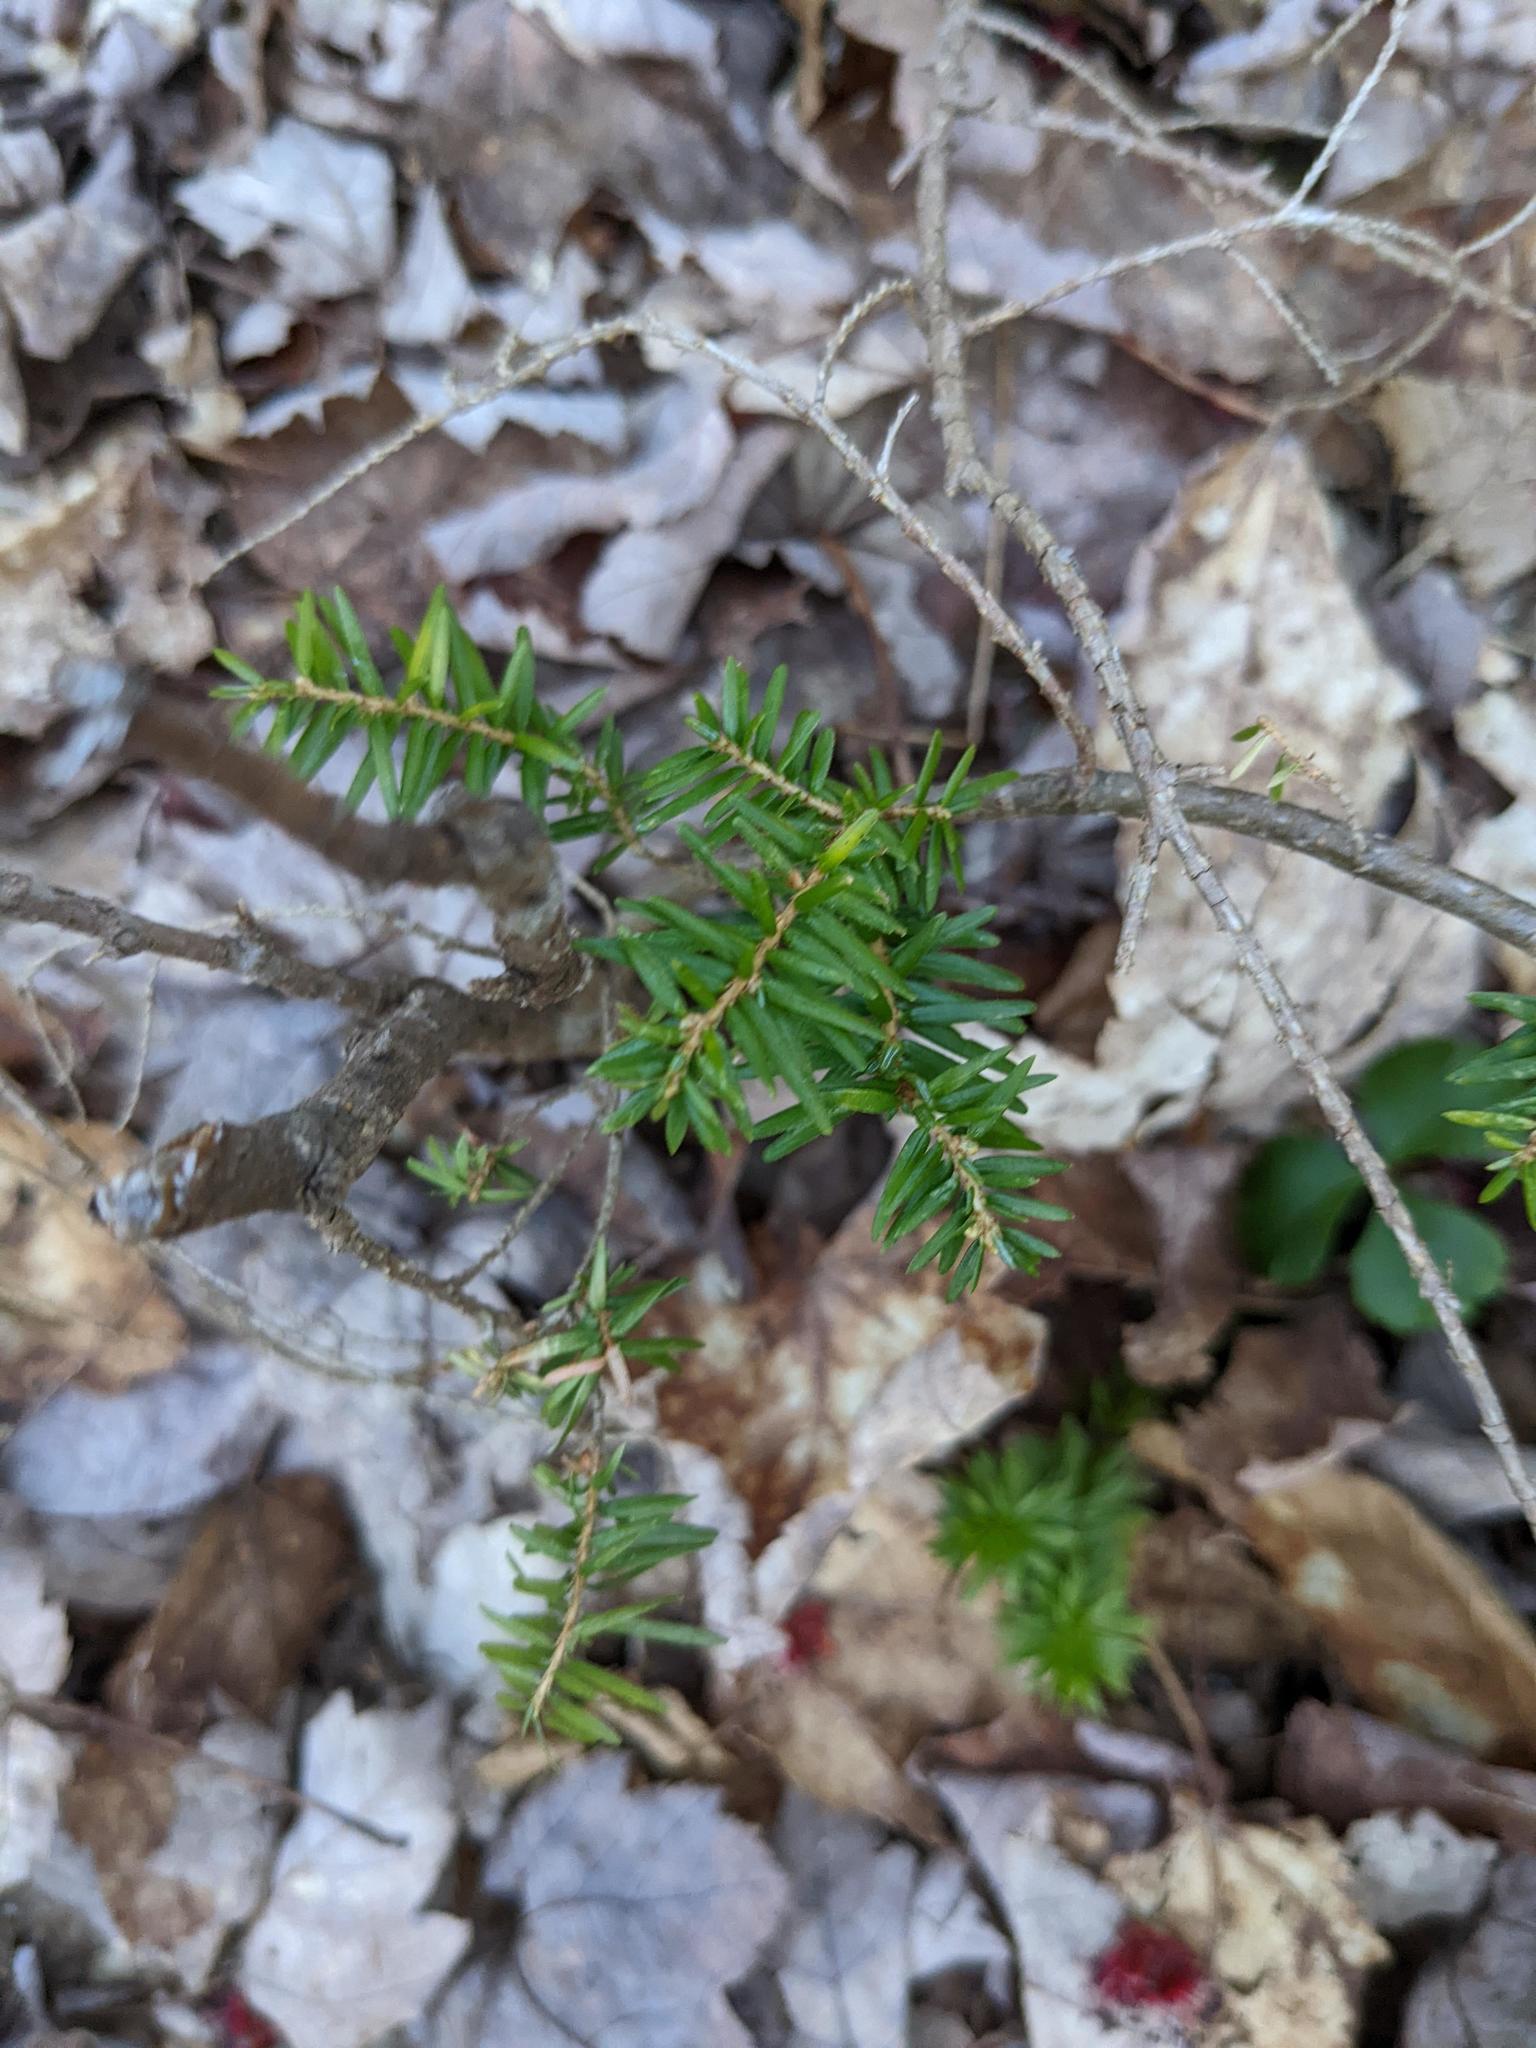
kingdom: Plantae
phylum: Tracheophyta
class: Pinopsida
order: Pinales
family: Pinaceae
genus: Tsuga
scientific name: Tsuga canadensis
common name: Eastern hemlock
